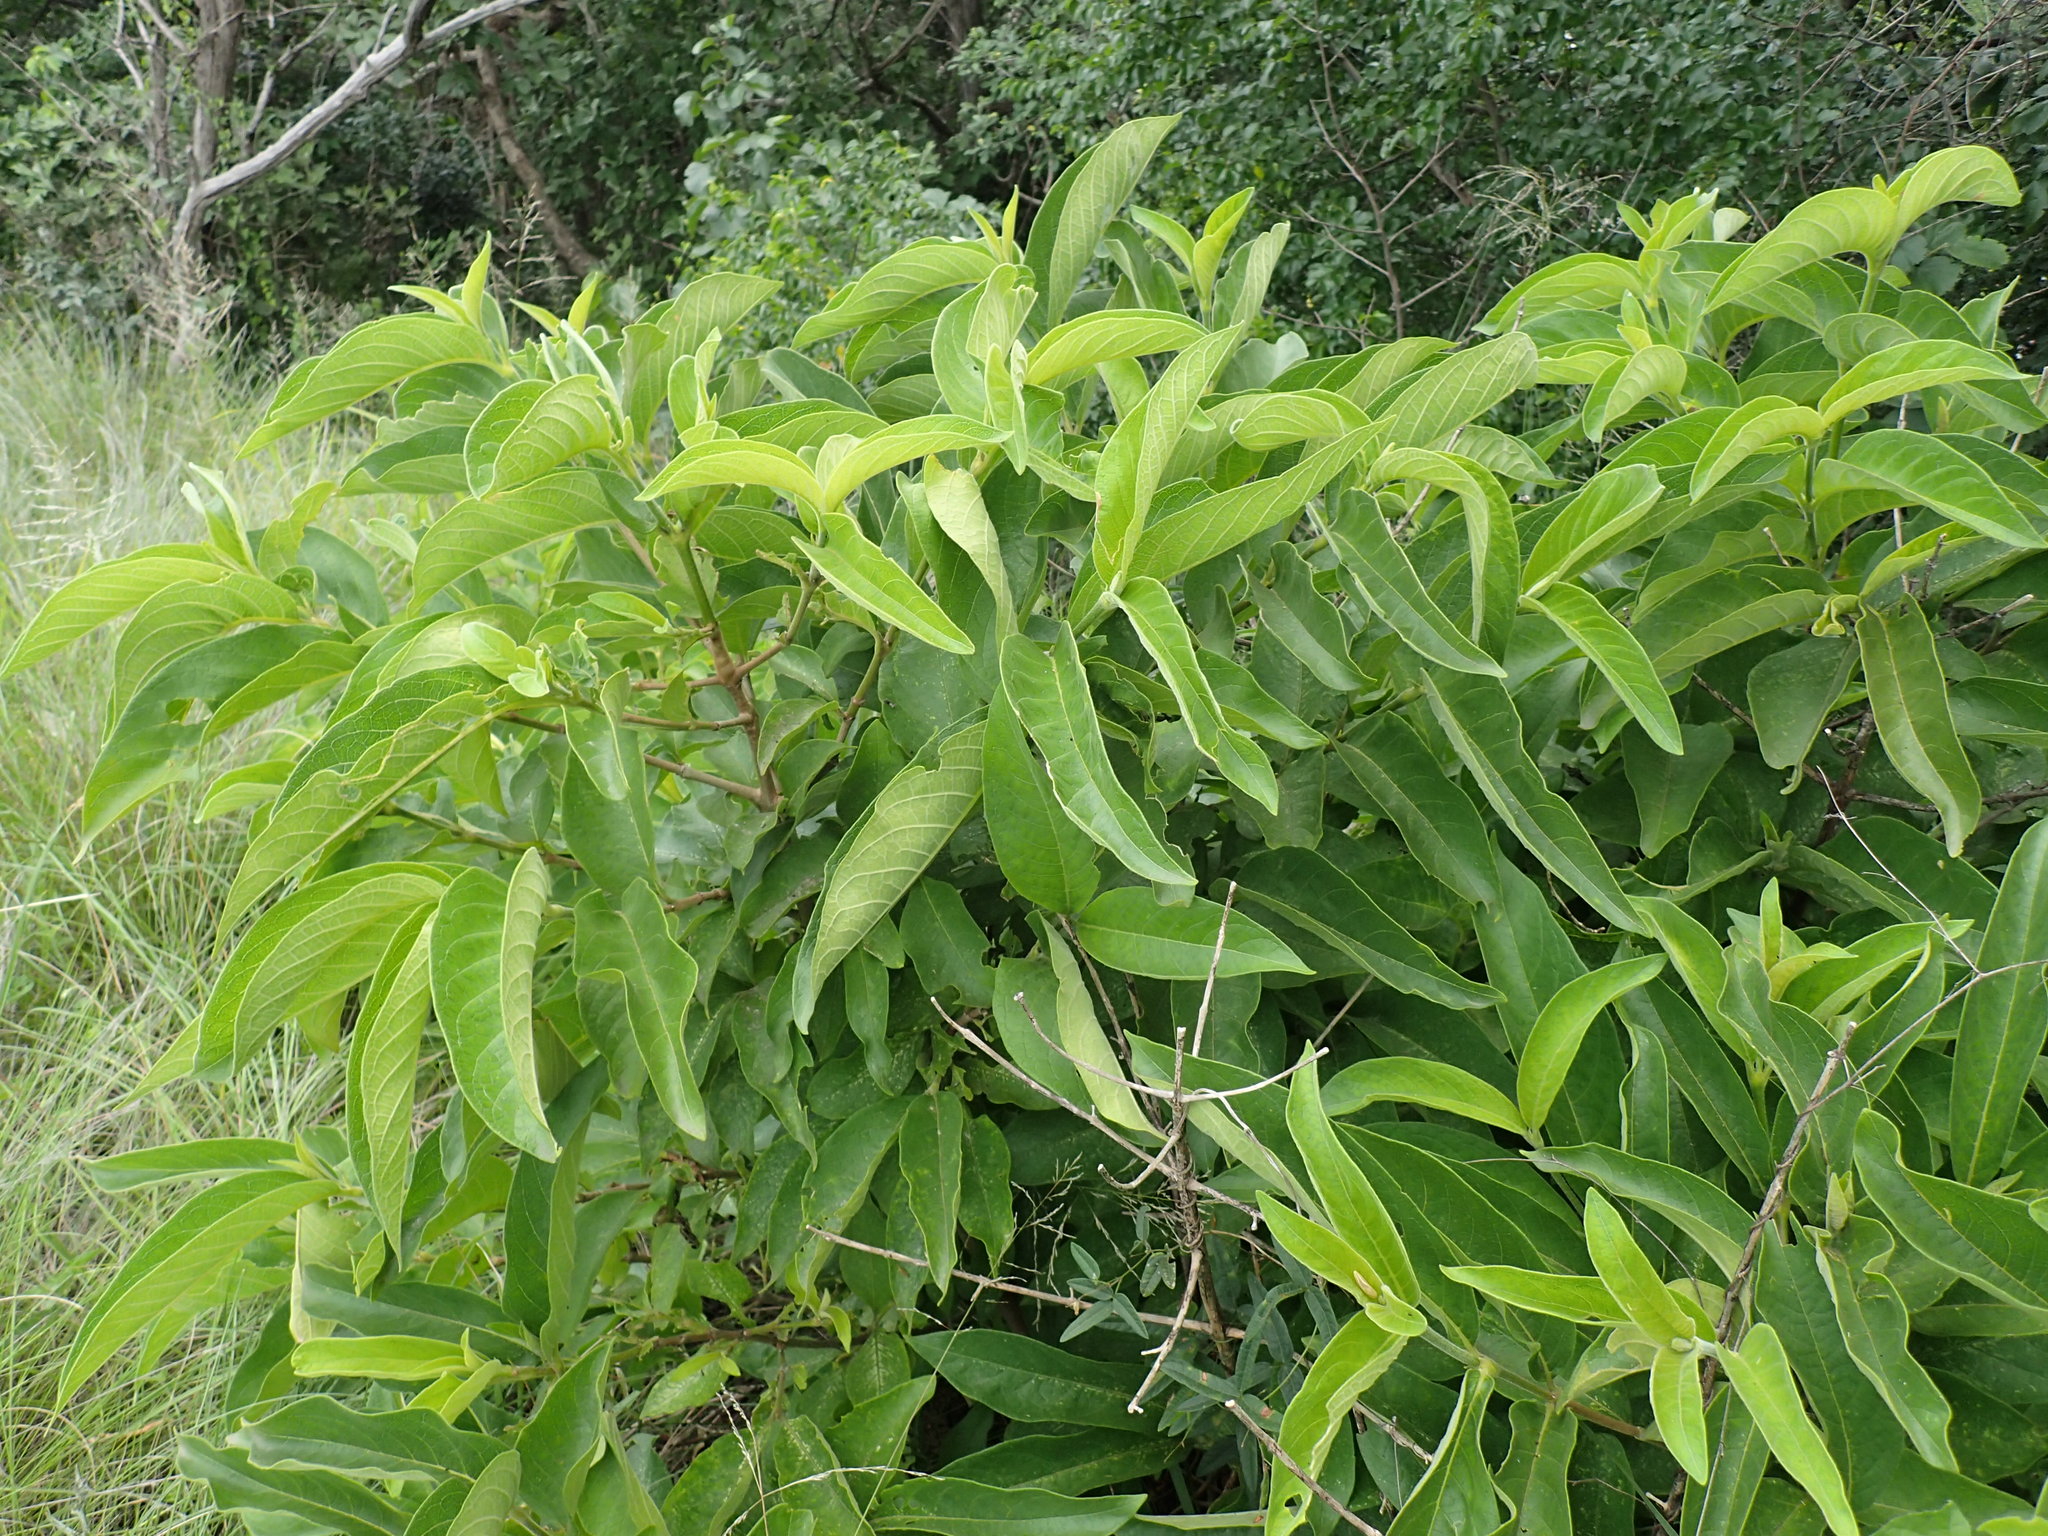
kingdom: Plantae
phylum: Tracheophyta
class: Magnoliopsida
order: Gentianales
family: Rubiaceae
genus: Vangueria
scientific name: Vangueria infausta
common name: Medlar
